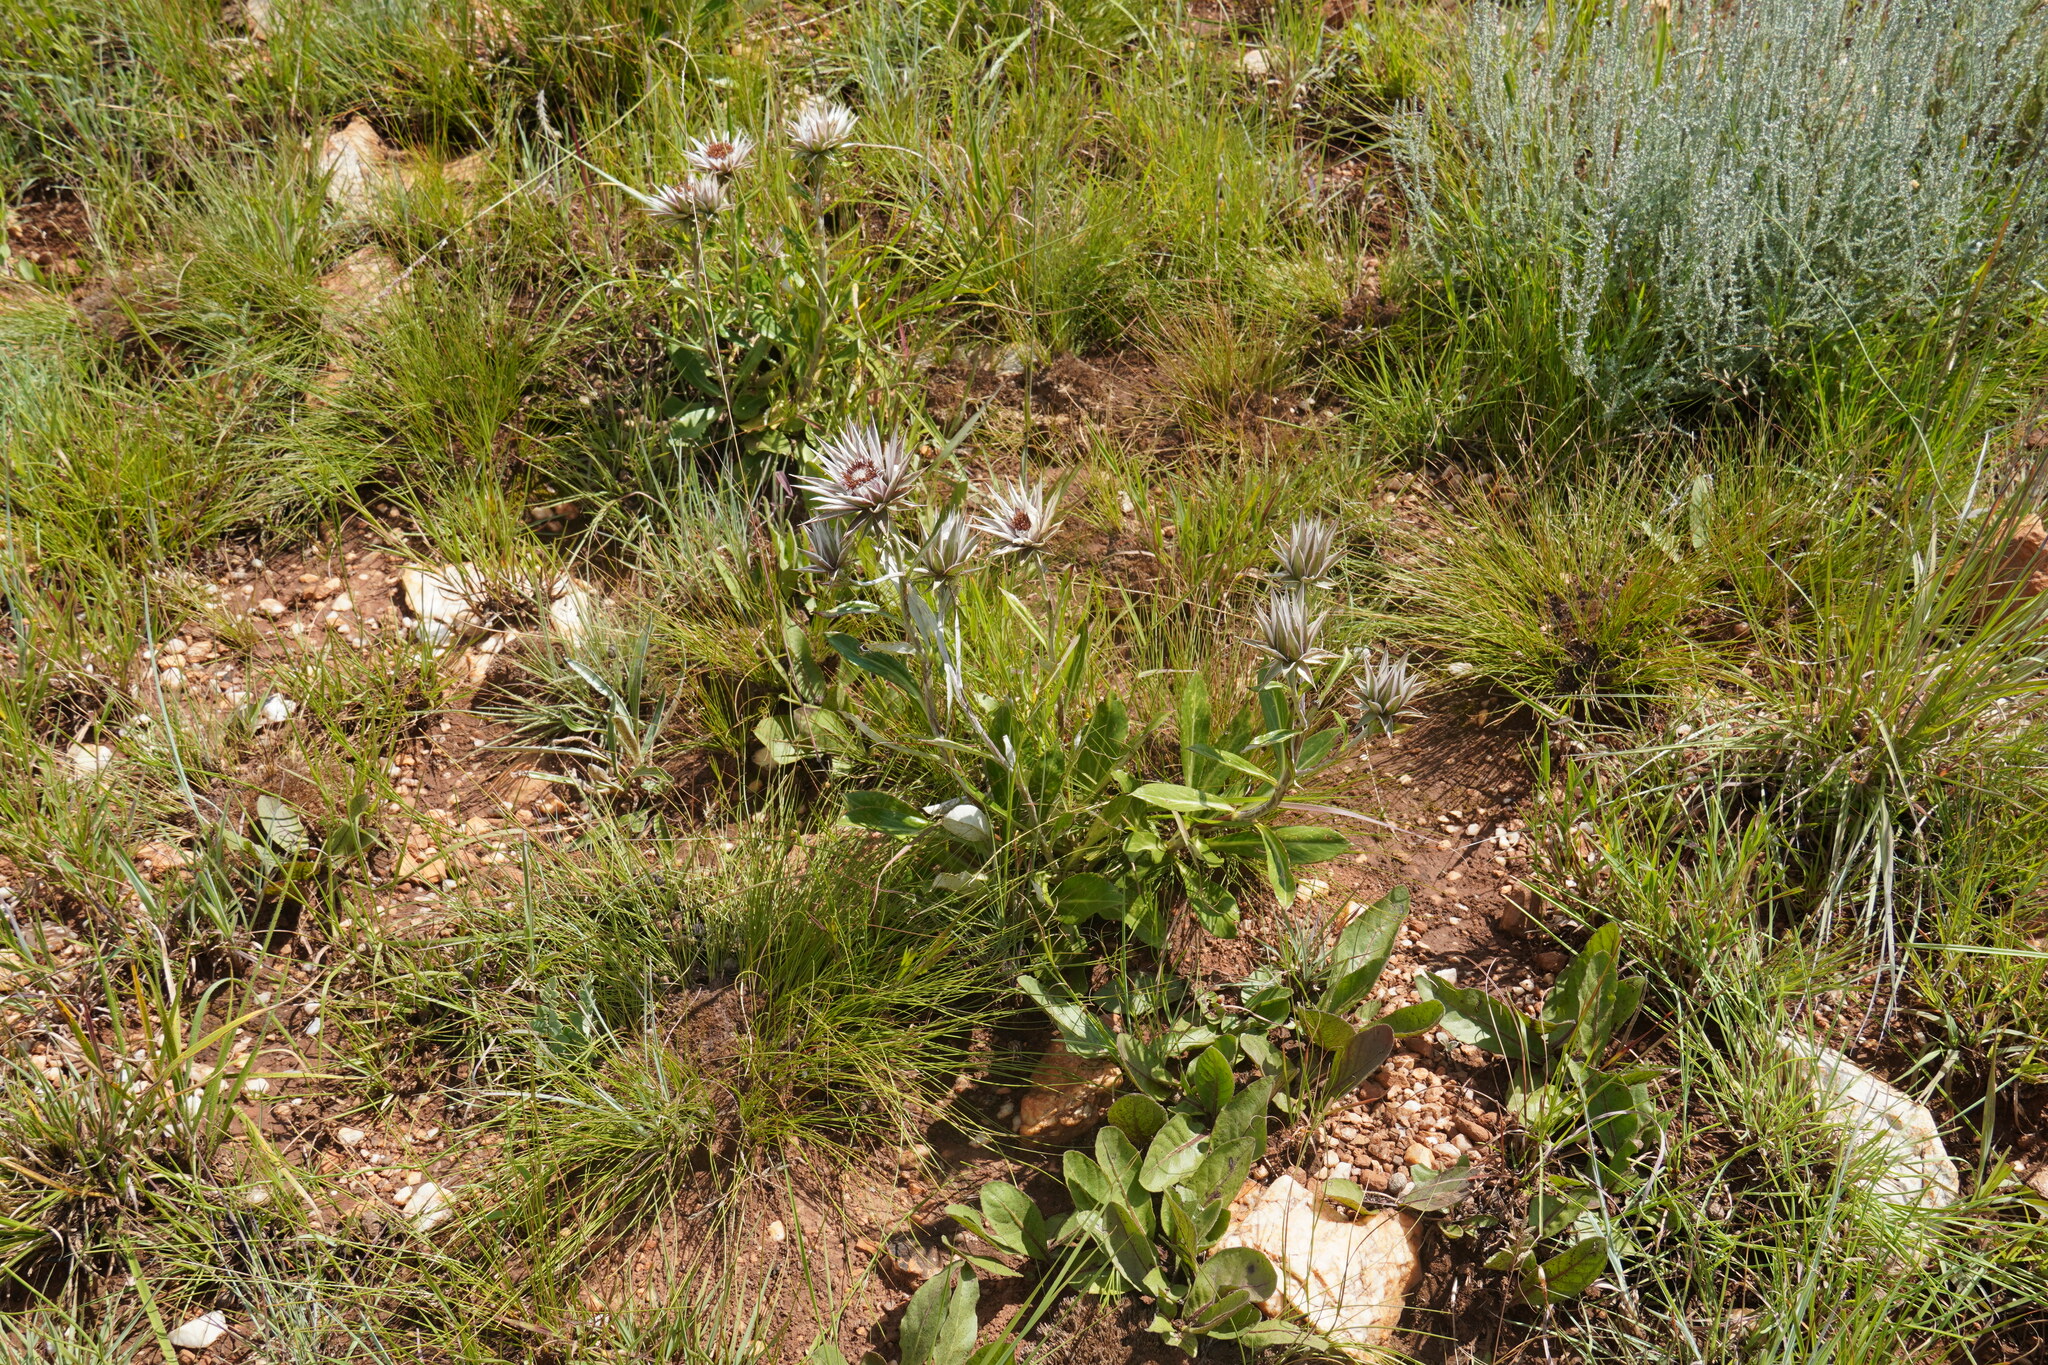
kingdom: Plantae
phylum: Tracheophyta
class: Magnoliopsida
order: Asterales
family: Asteraceae
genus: Macledium
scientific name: Macledium zeyheri
